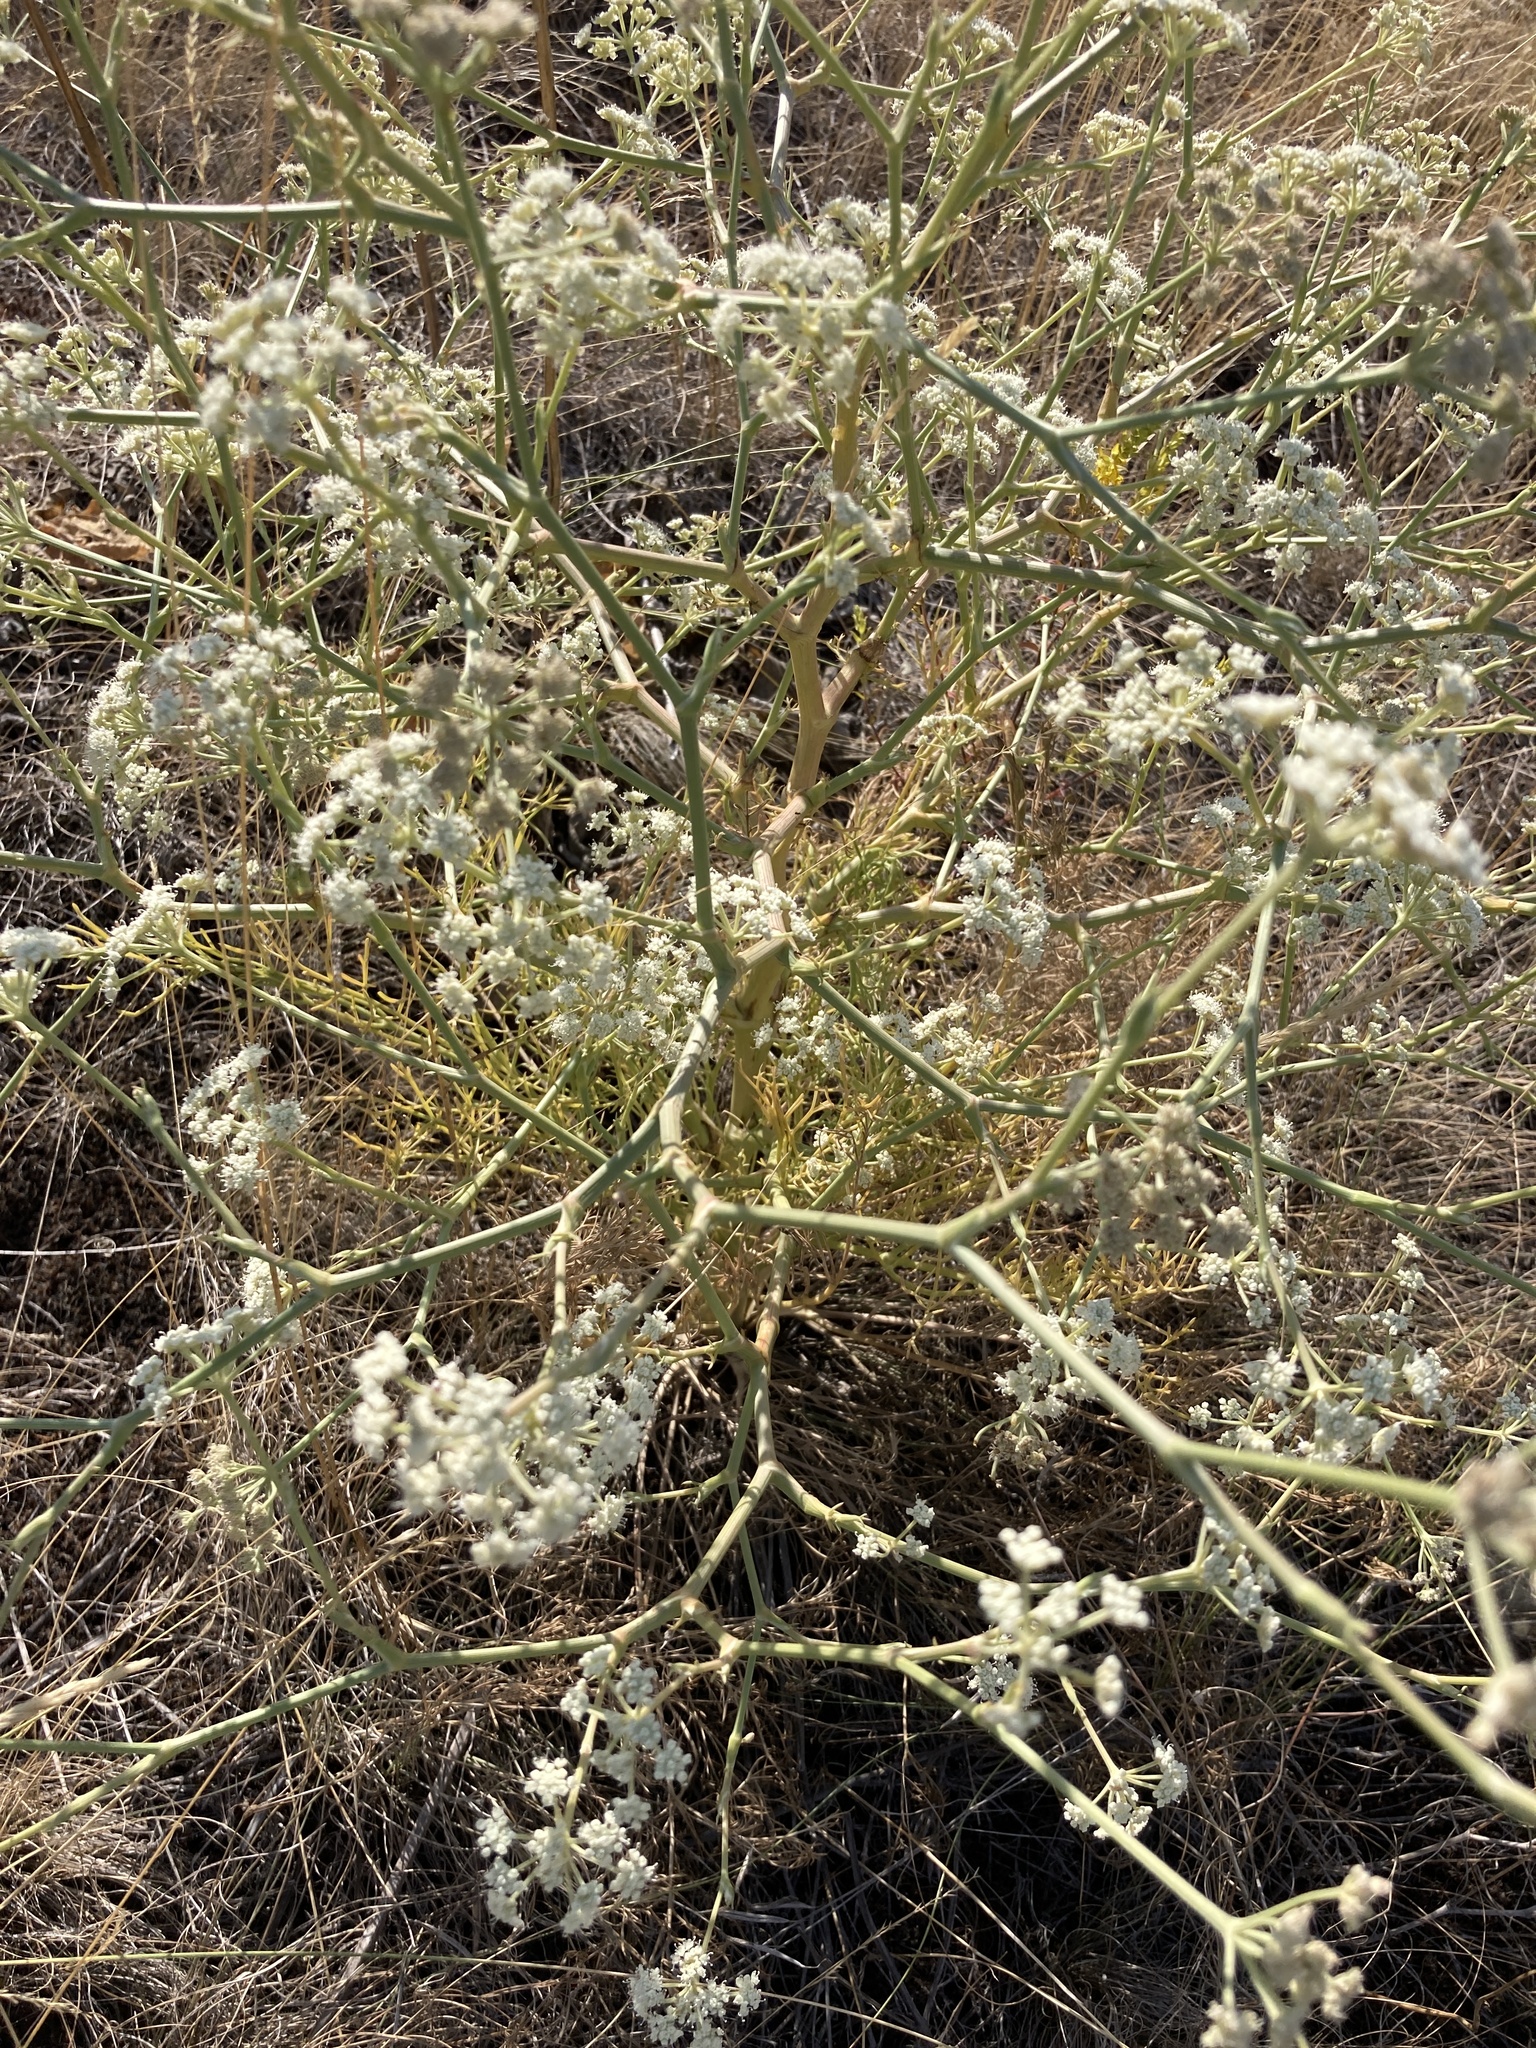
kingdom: Plantae
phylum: Tracheophyta
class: Magnoliopsida
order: Apiales
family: Apiaceae
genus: Seseli
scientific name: Seseli arenarium
